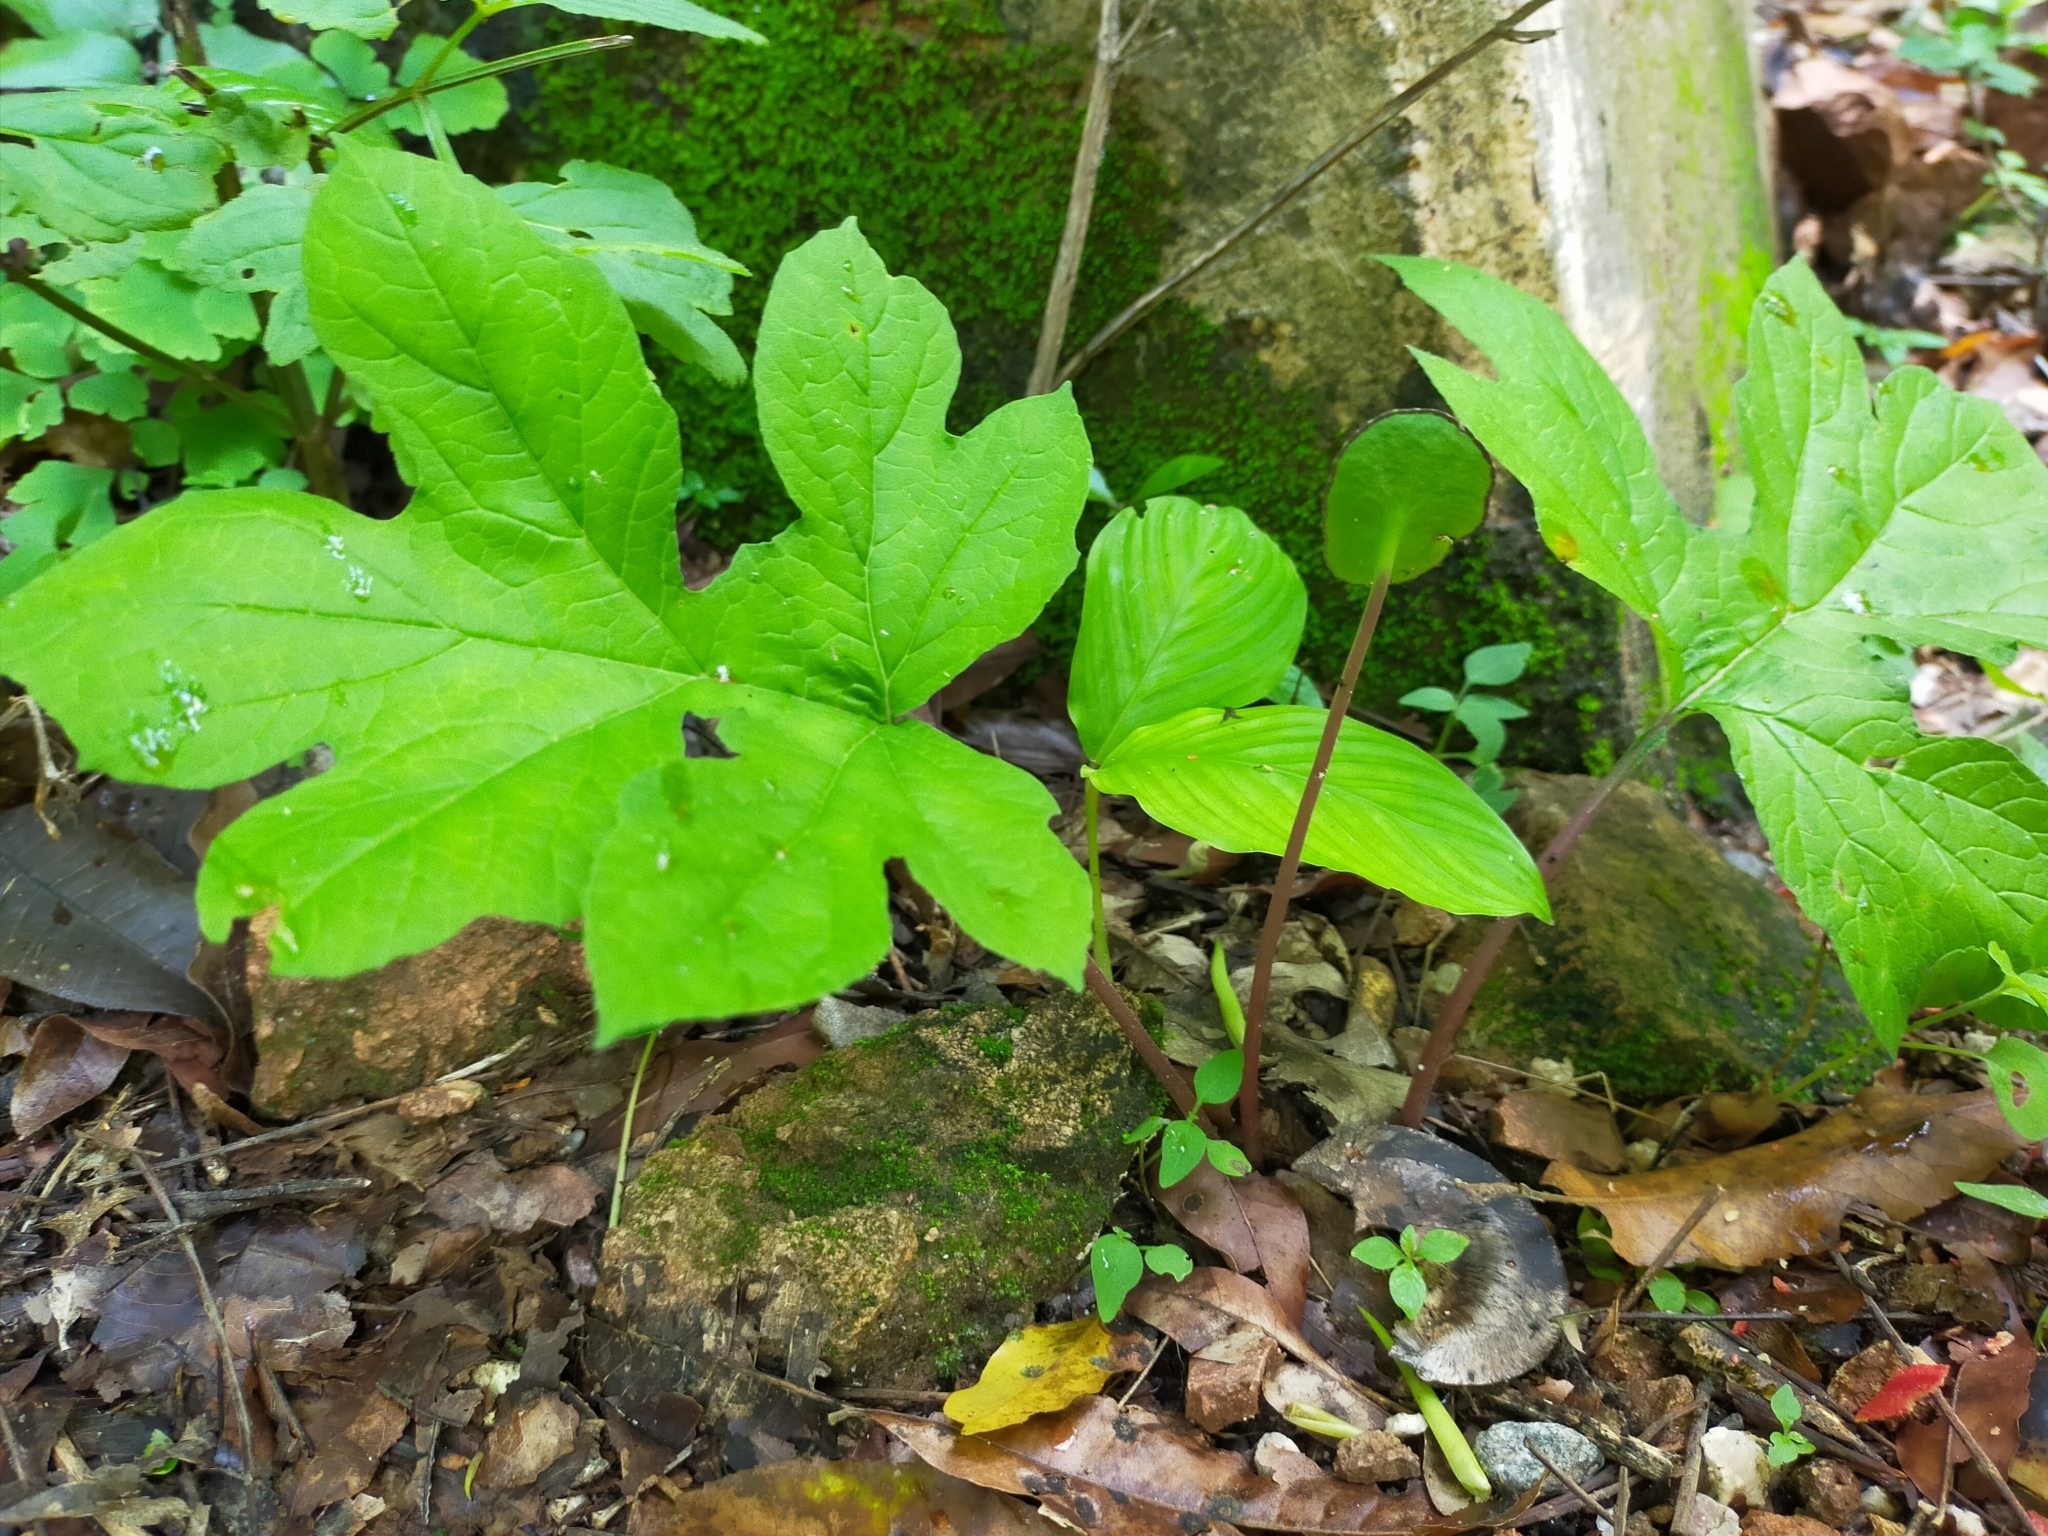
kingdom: Plantae
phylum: Tracheophyta
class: Magnoliopsida
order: Rosales
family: Moraceae
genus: Dorstenia
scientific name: Dorstenia drakena
